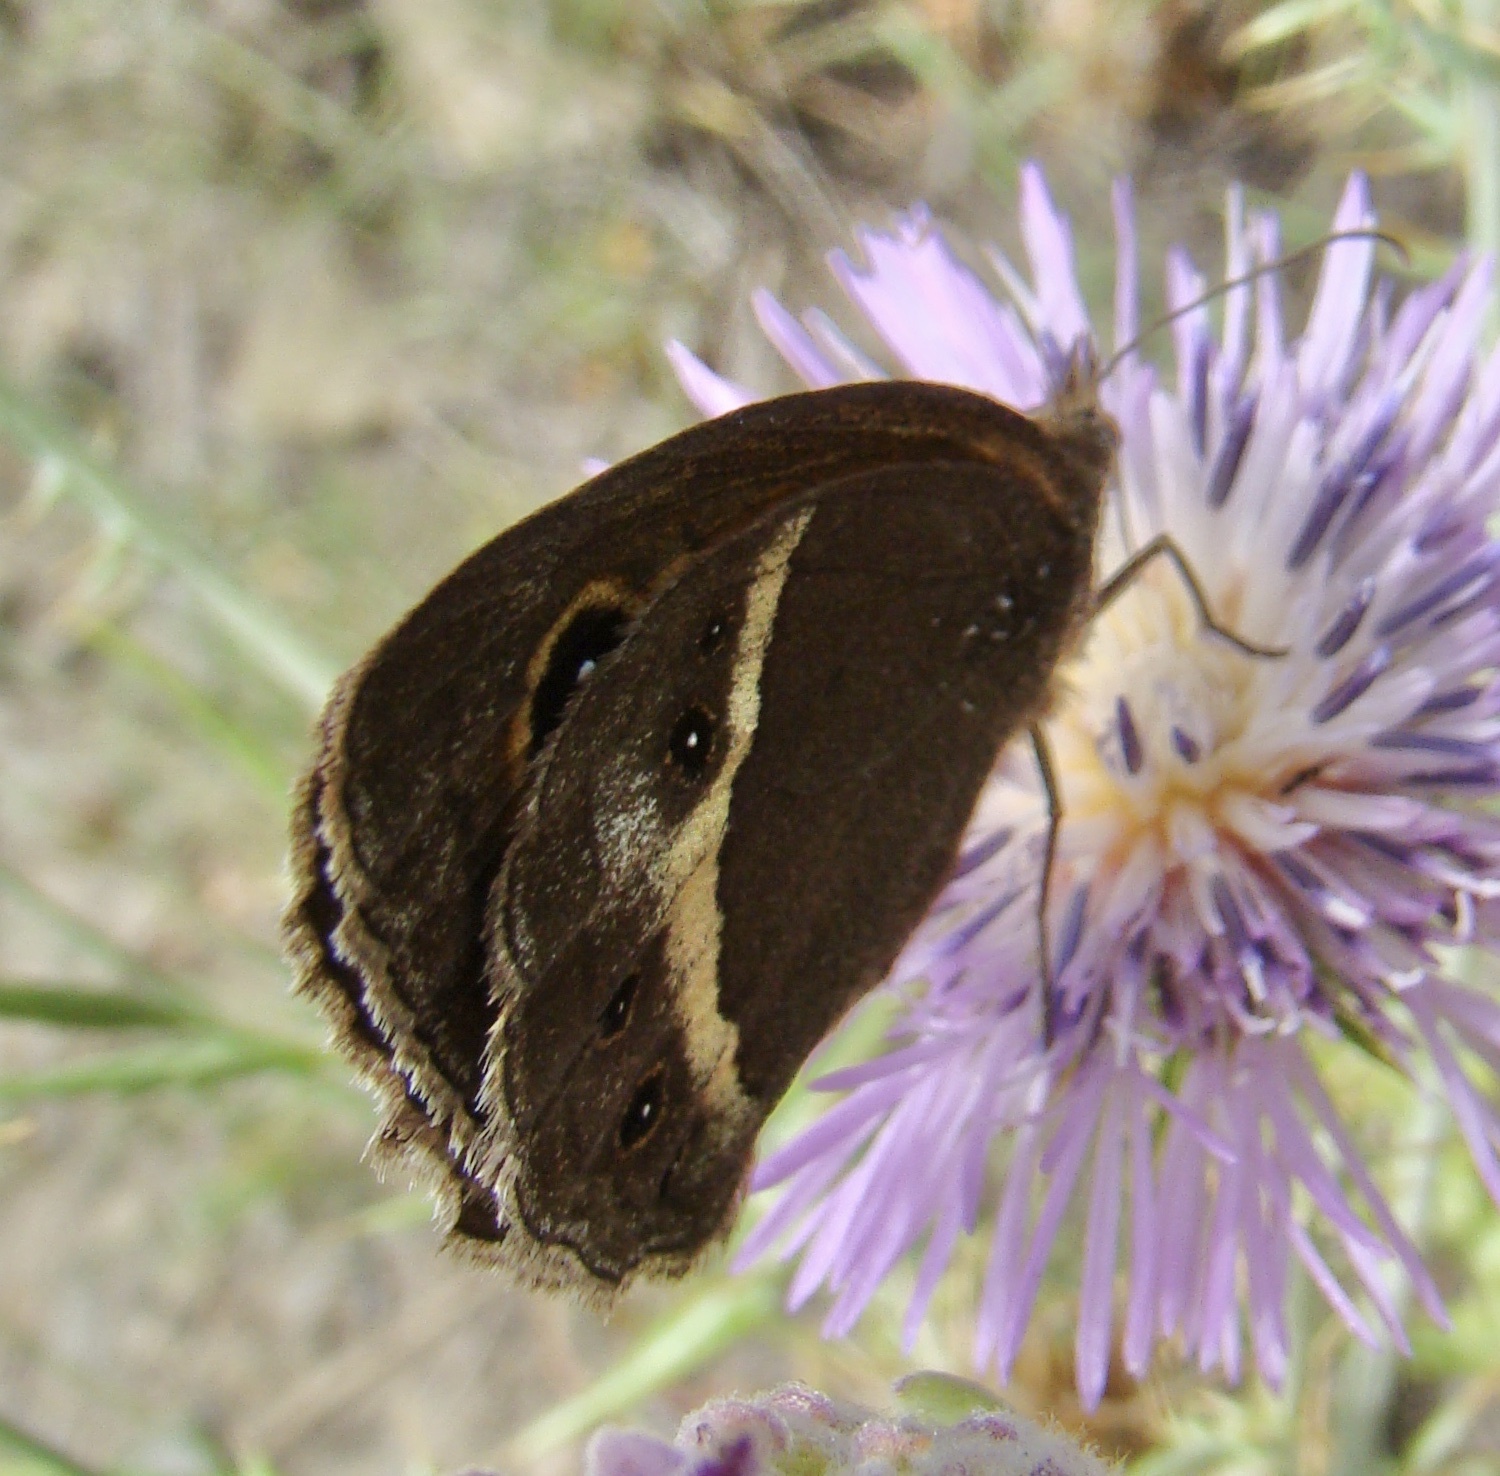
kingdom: Animalia
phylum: Arthropoda
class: Insecta
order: Lepidoptera
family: Nymphalidae
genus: Pyronia
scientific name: Pyronia bathseba
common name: Spanish gatekeeper
